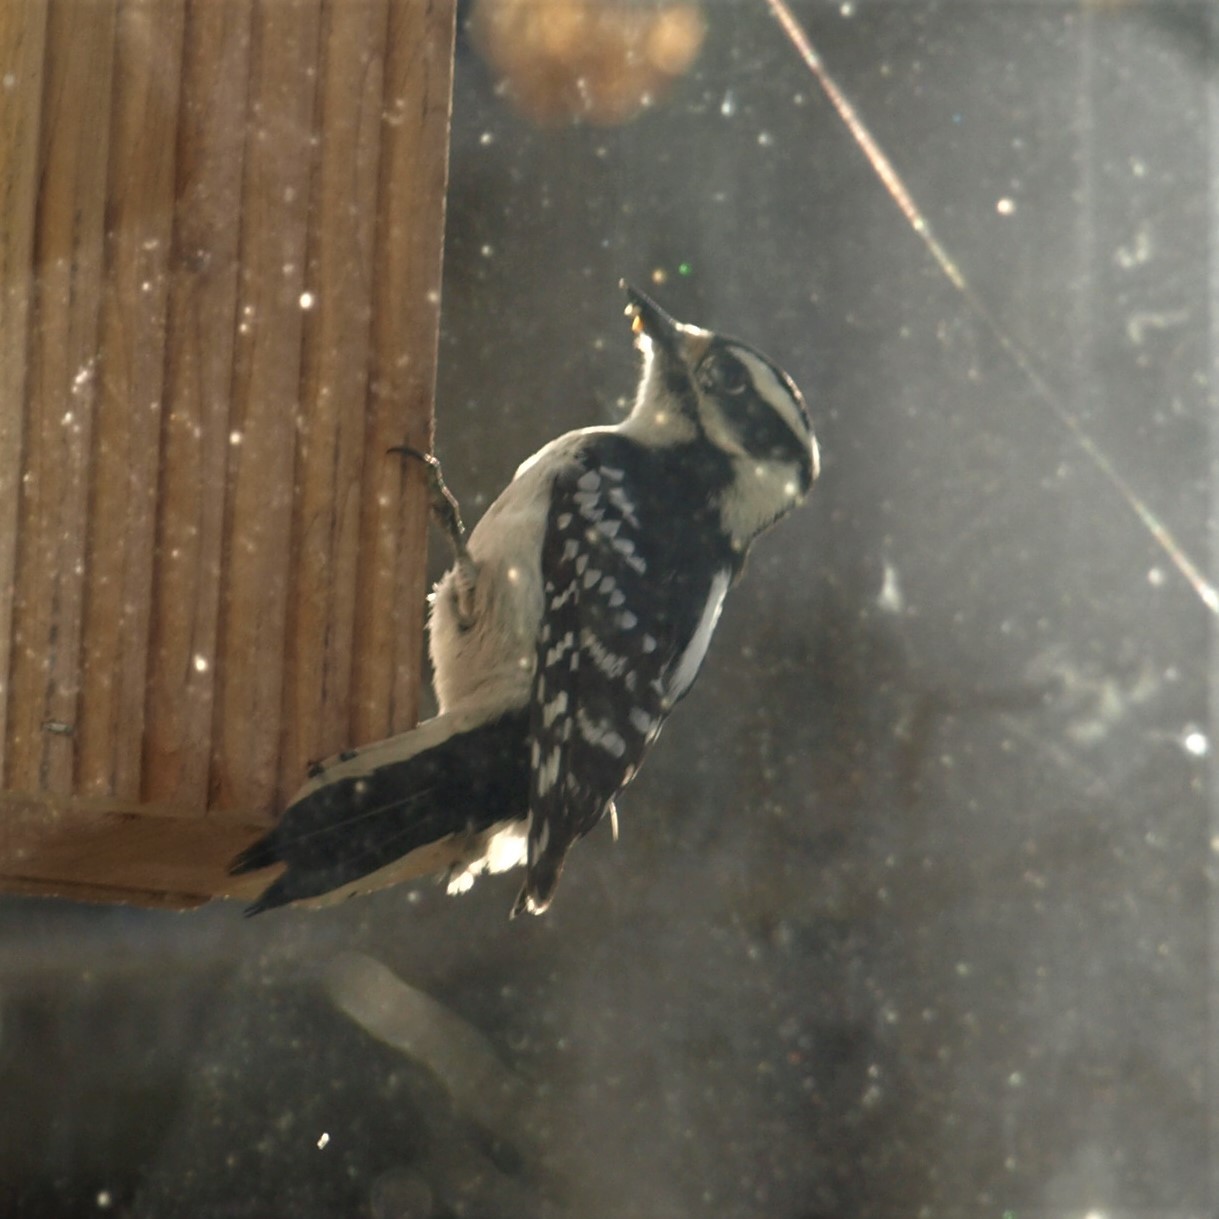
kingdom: Animalia
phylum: Chordata
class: Aves
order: Piciformes
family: Picidae
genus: Dryobates
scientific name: Dryobates pubescens
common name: Downy woodpecker
